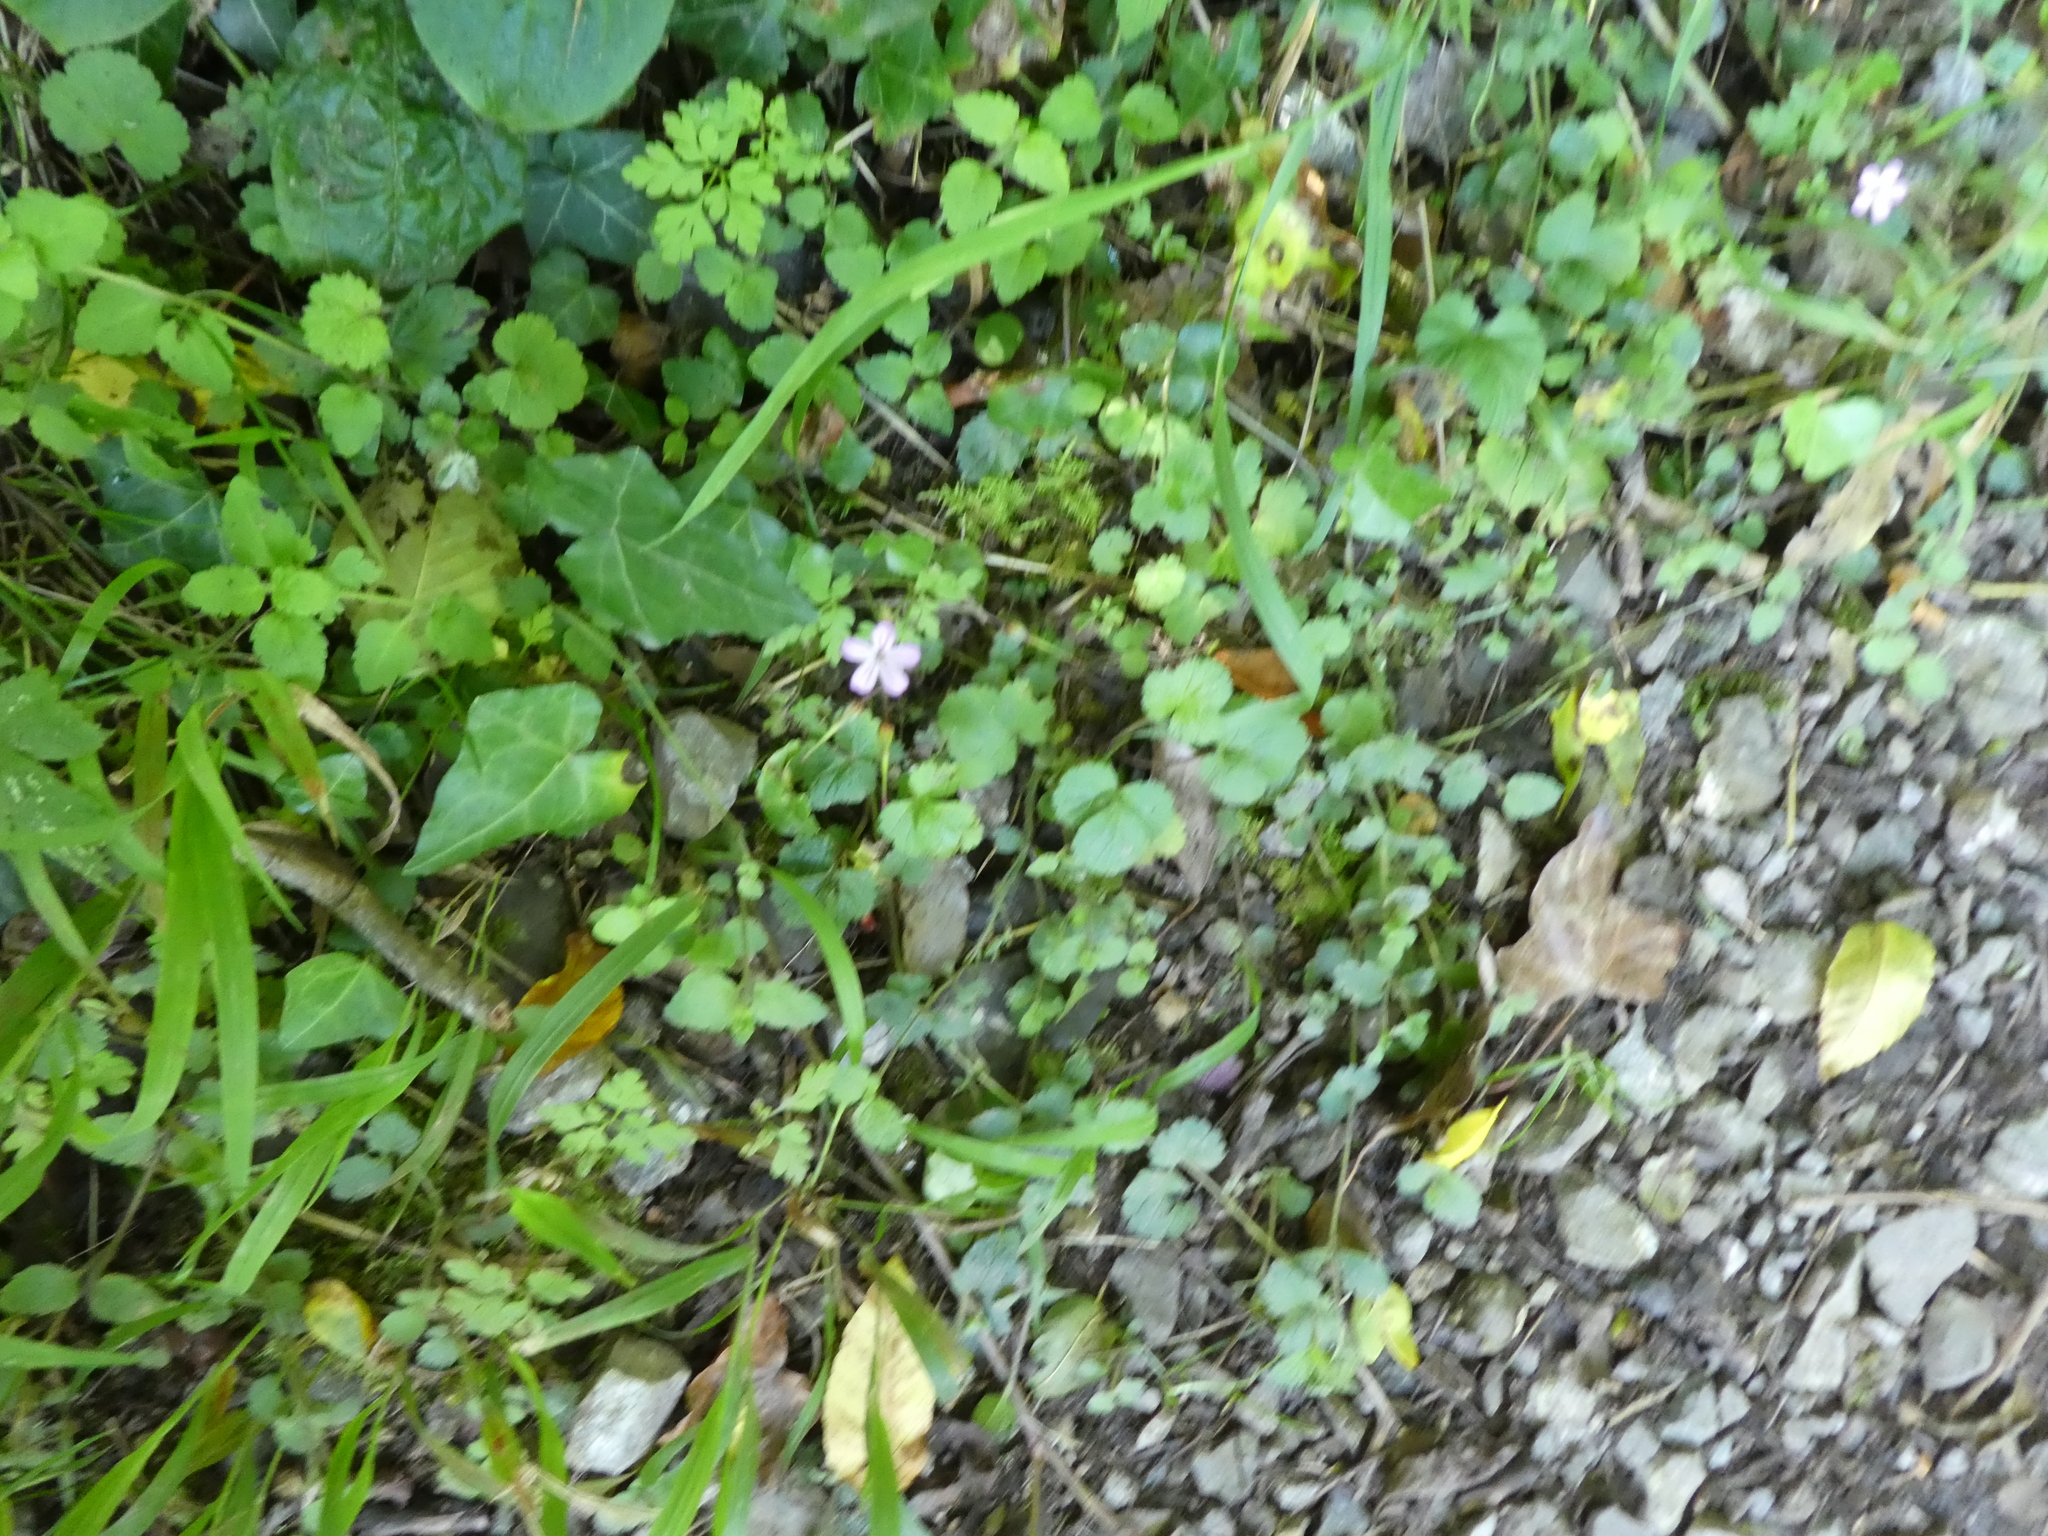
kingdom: Plantae
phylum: Tracheophyta
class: Magnoliopsida
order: Geraniales
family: Geraniaceae
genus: Geranium
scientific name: Geranium robertianum
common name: Herb-robert
